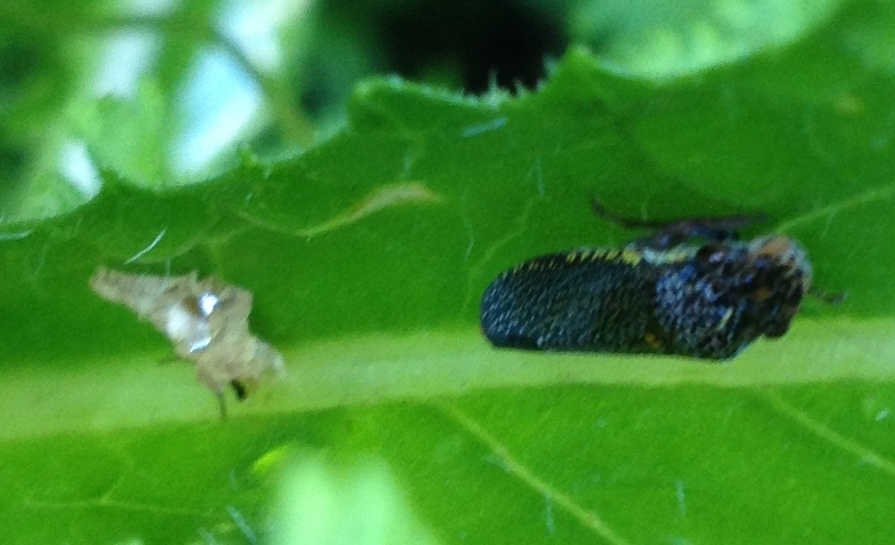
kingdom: Animalia
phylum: Arthropoda
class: Insecta
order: Hemiptera
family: Cicadellidae
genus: Paraulacizes
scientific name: Paraulacizes irrorata
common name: Speckled sharpshooter
